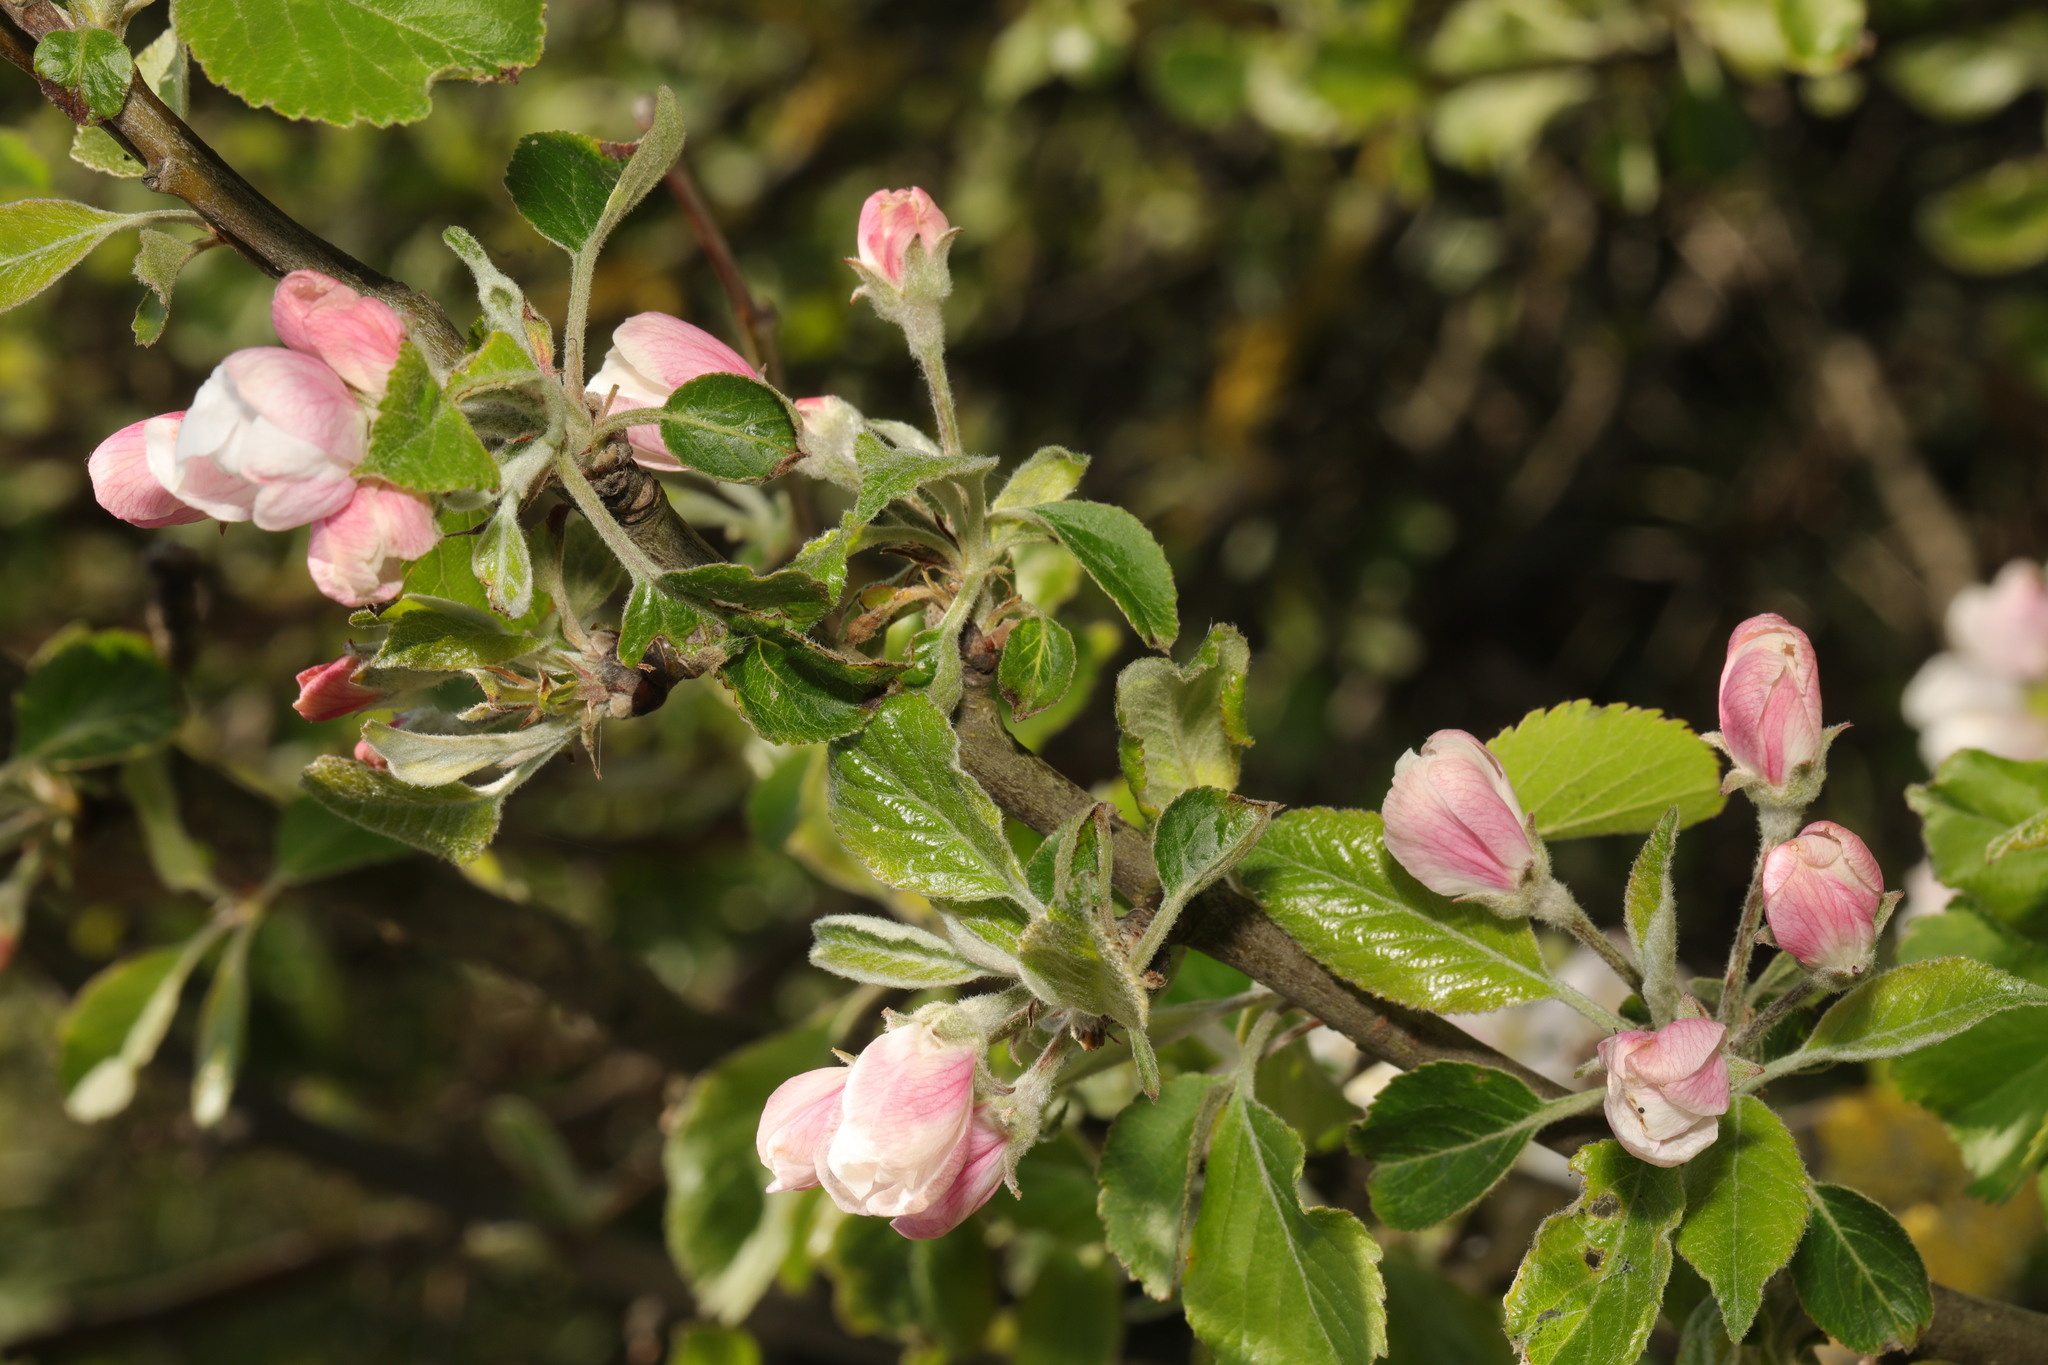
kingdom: Plantae
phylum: Tracheophyta
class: Magnoliopsida
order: Rosales
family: Rosaceae
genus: Malus
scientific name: Malus domestica
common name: Apple
